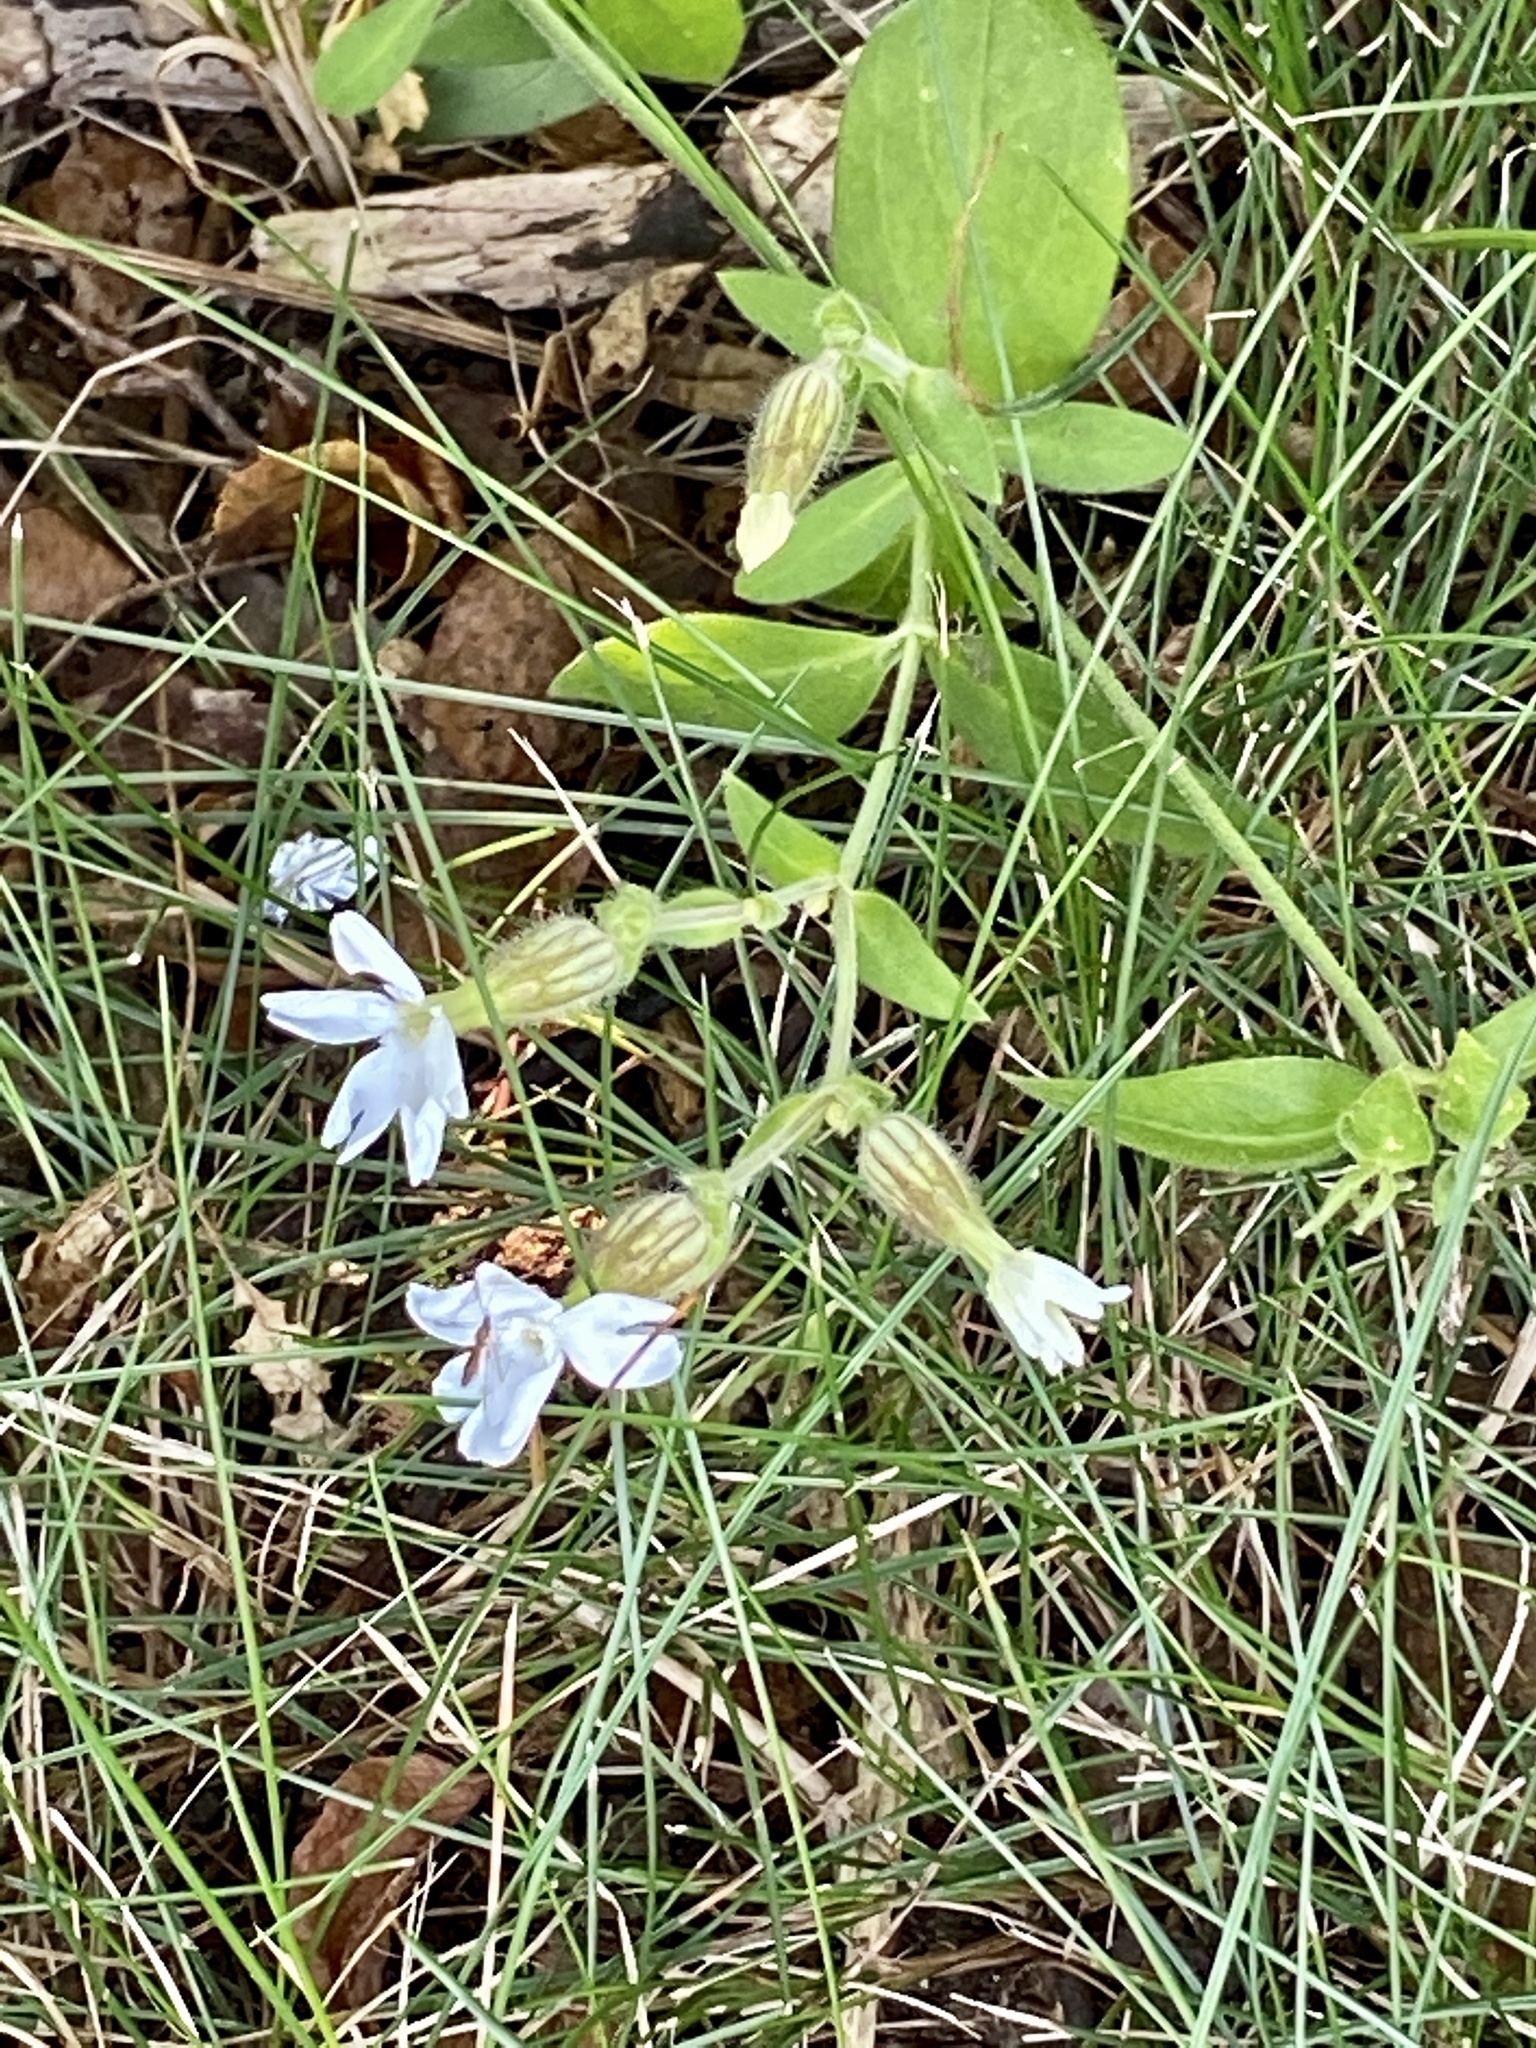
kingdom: Plantae
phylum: Tracheophyta
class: Magnoliopsida
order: Caryophyllales
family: Caryophyllaceae
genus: Silene
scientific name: Silene latifolia
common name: White campion
